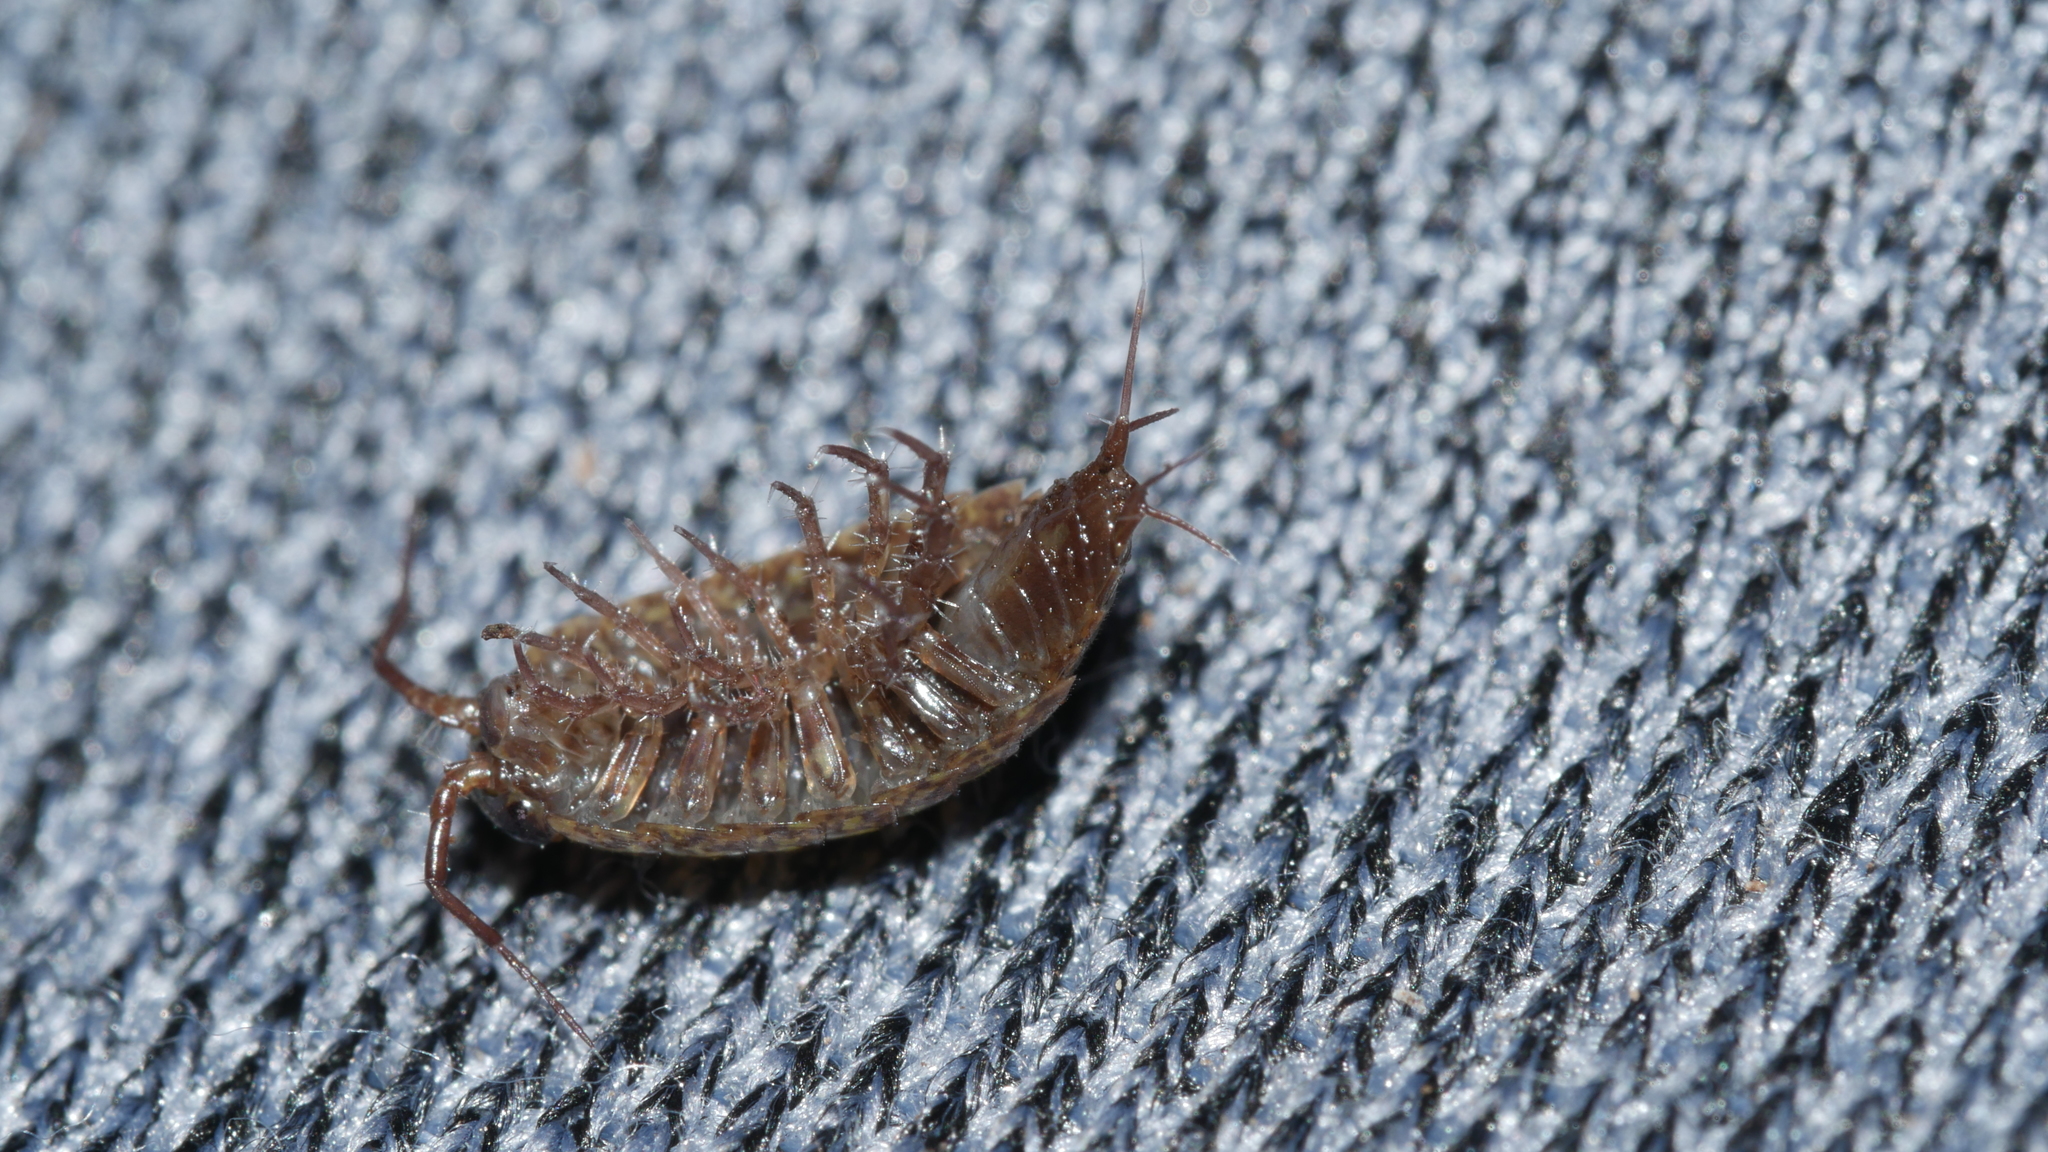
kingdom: Animalia
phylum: Arthropoda
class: Malacostraca
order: Isopoda
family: Ligiidae
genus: Ligidium
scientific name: Ligidium elrodii
